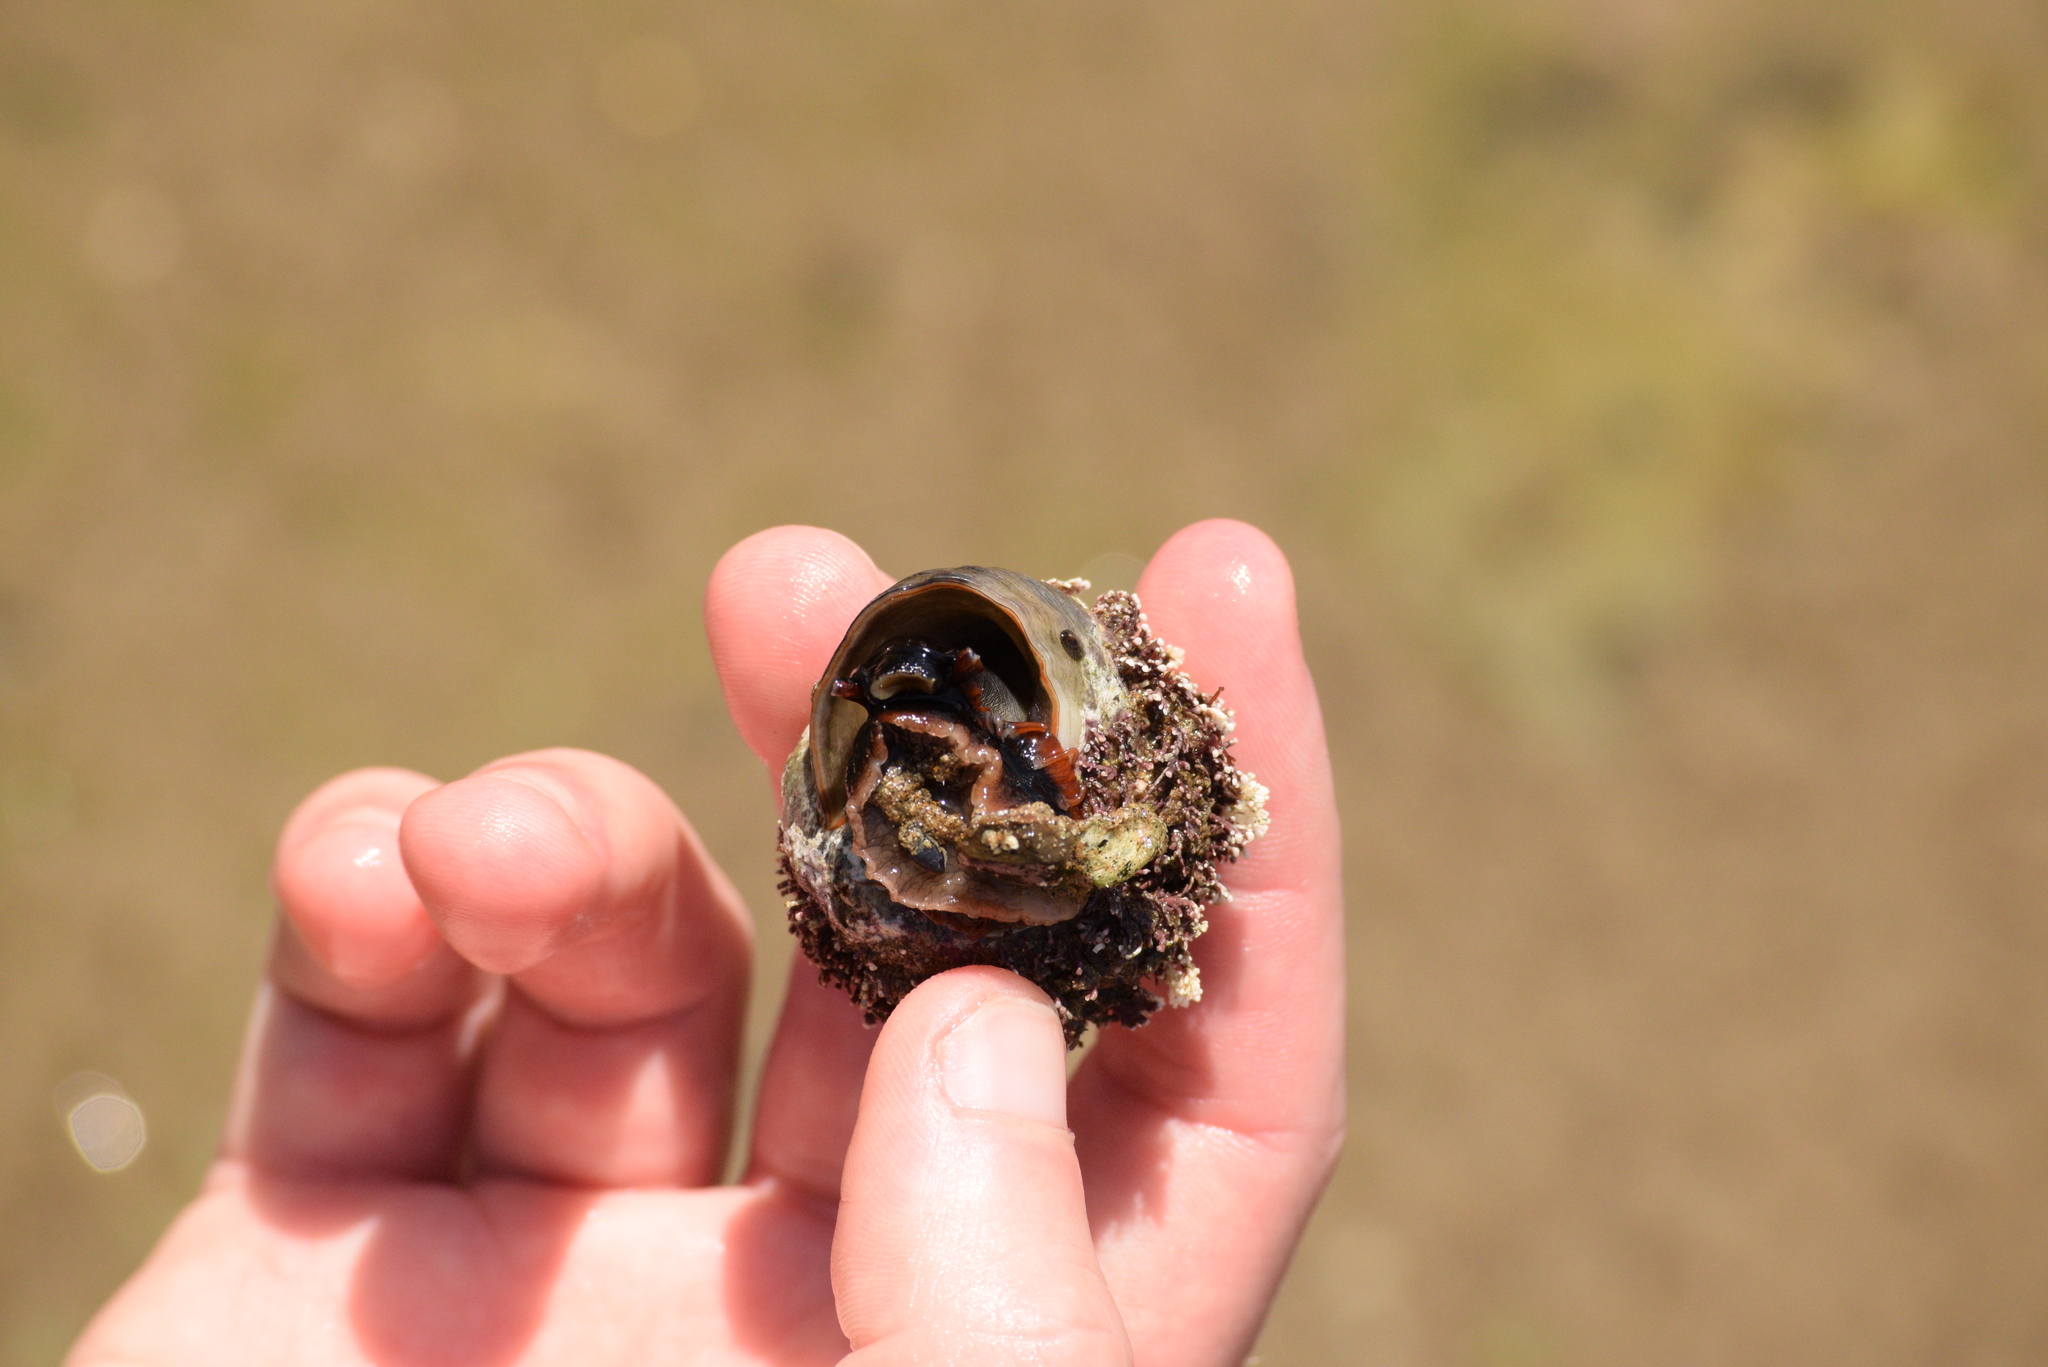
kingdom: Animalia
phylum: Mollusca
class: Gastropoda
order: Trochida
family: Tegulidae
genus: Norrisia
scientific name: Norrisia norrisii
